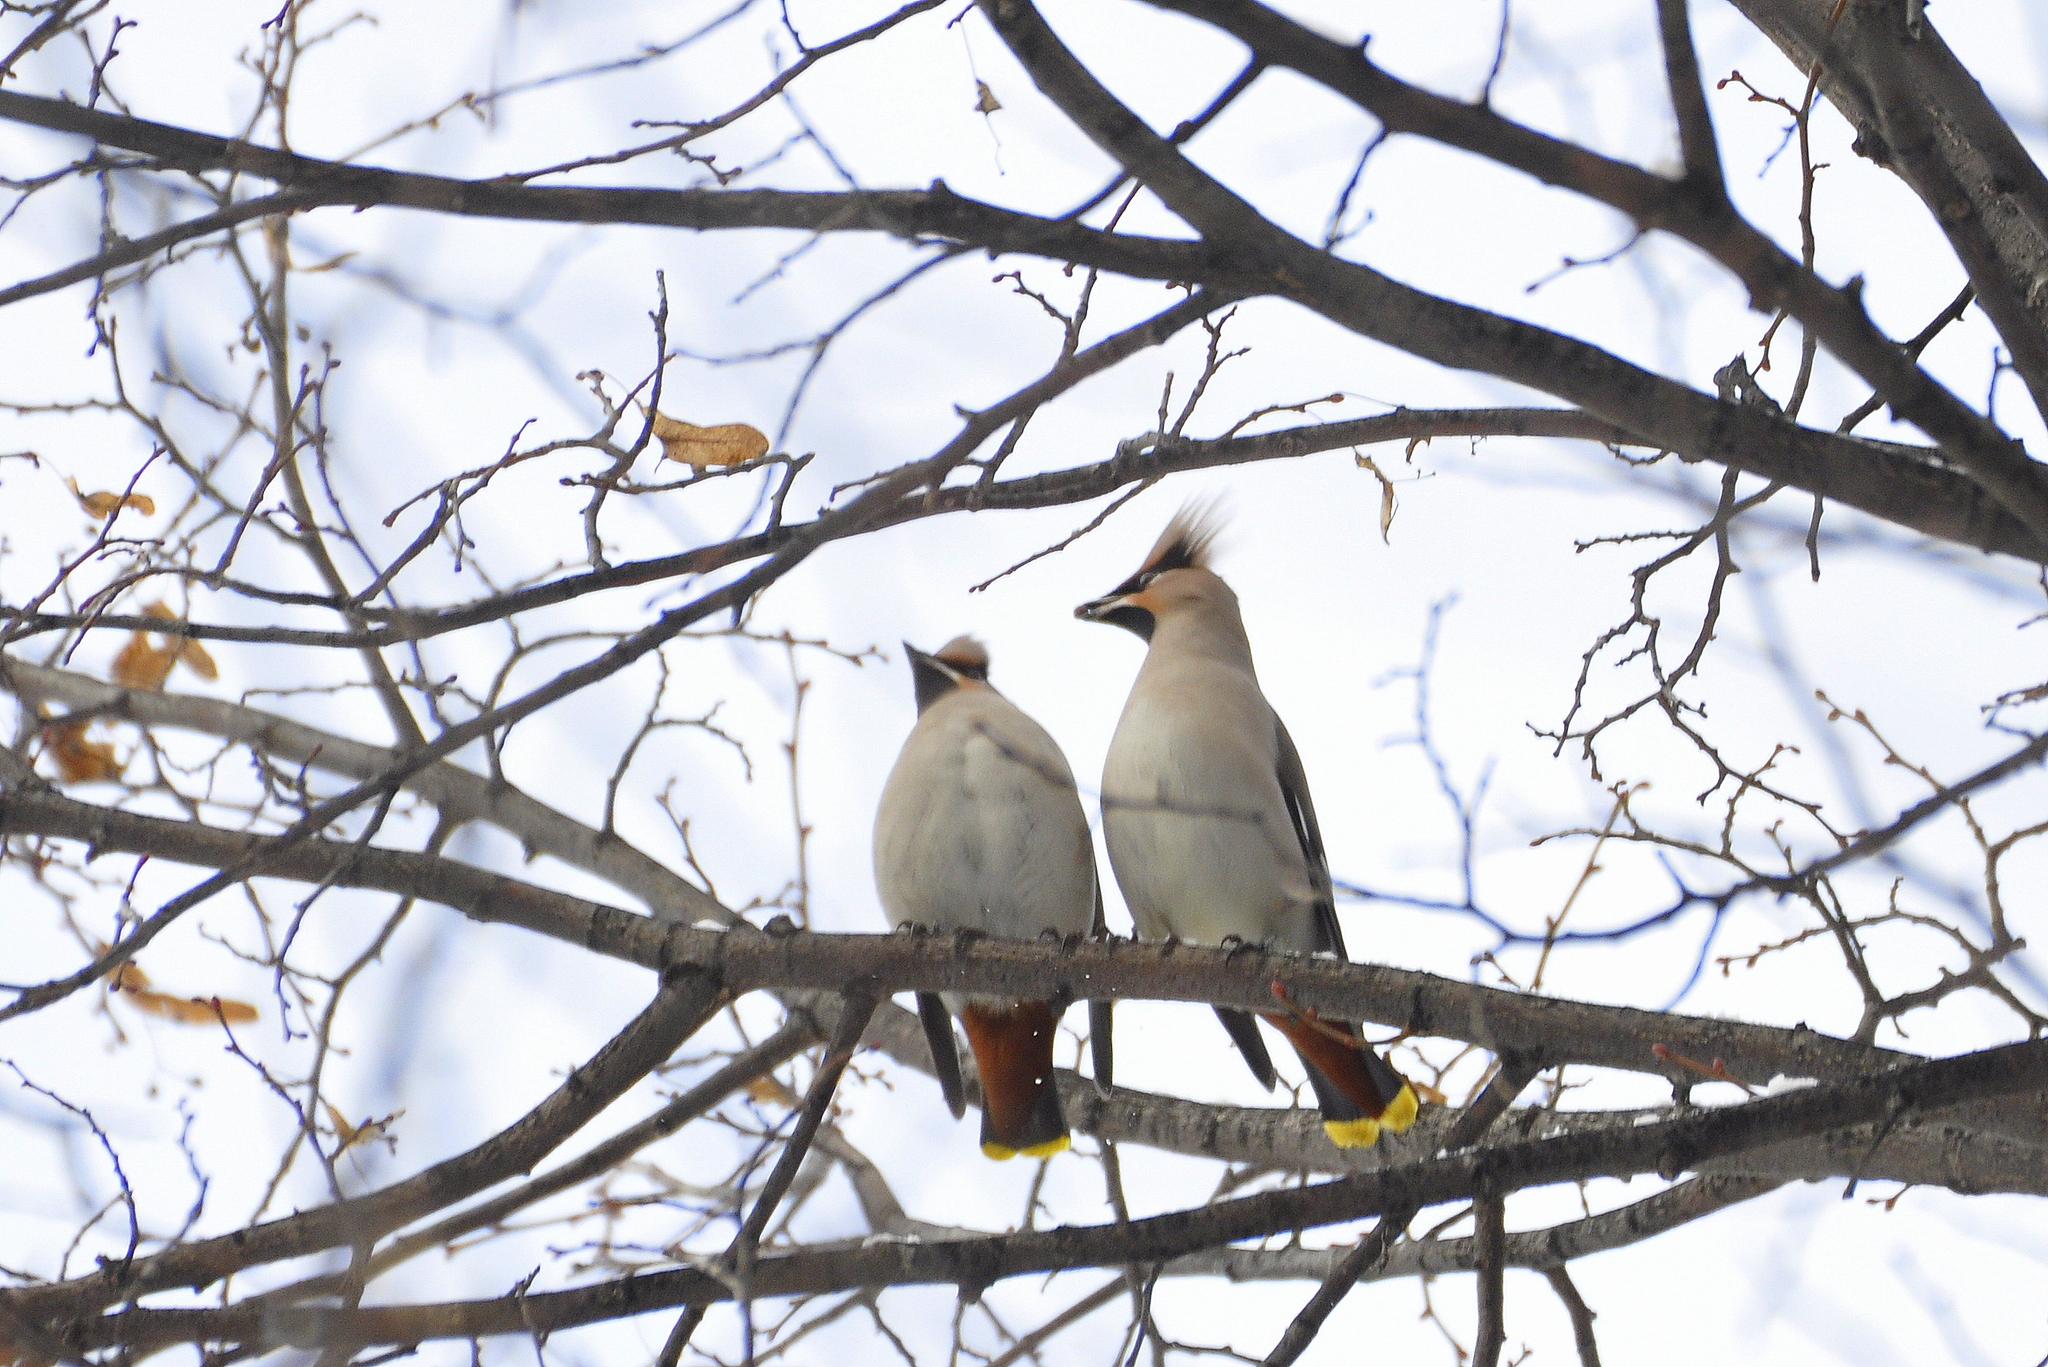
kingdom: Animalia
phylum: Chordata
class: Aves
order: Passeriformes
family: Bombycillidae
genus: Bombycilla
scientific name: Bombycilla garrulus
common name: Bohemian waxwing
